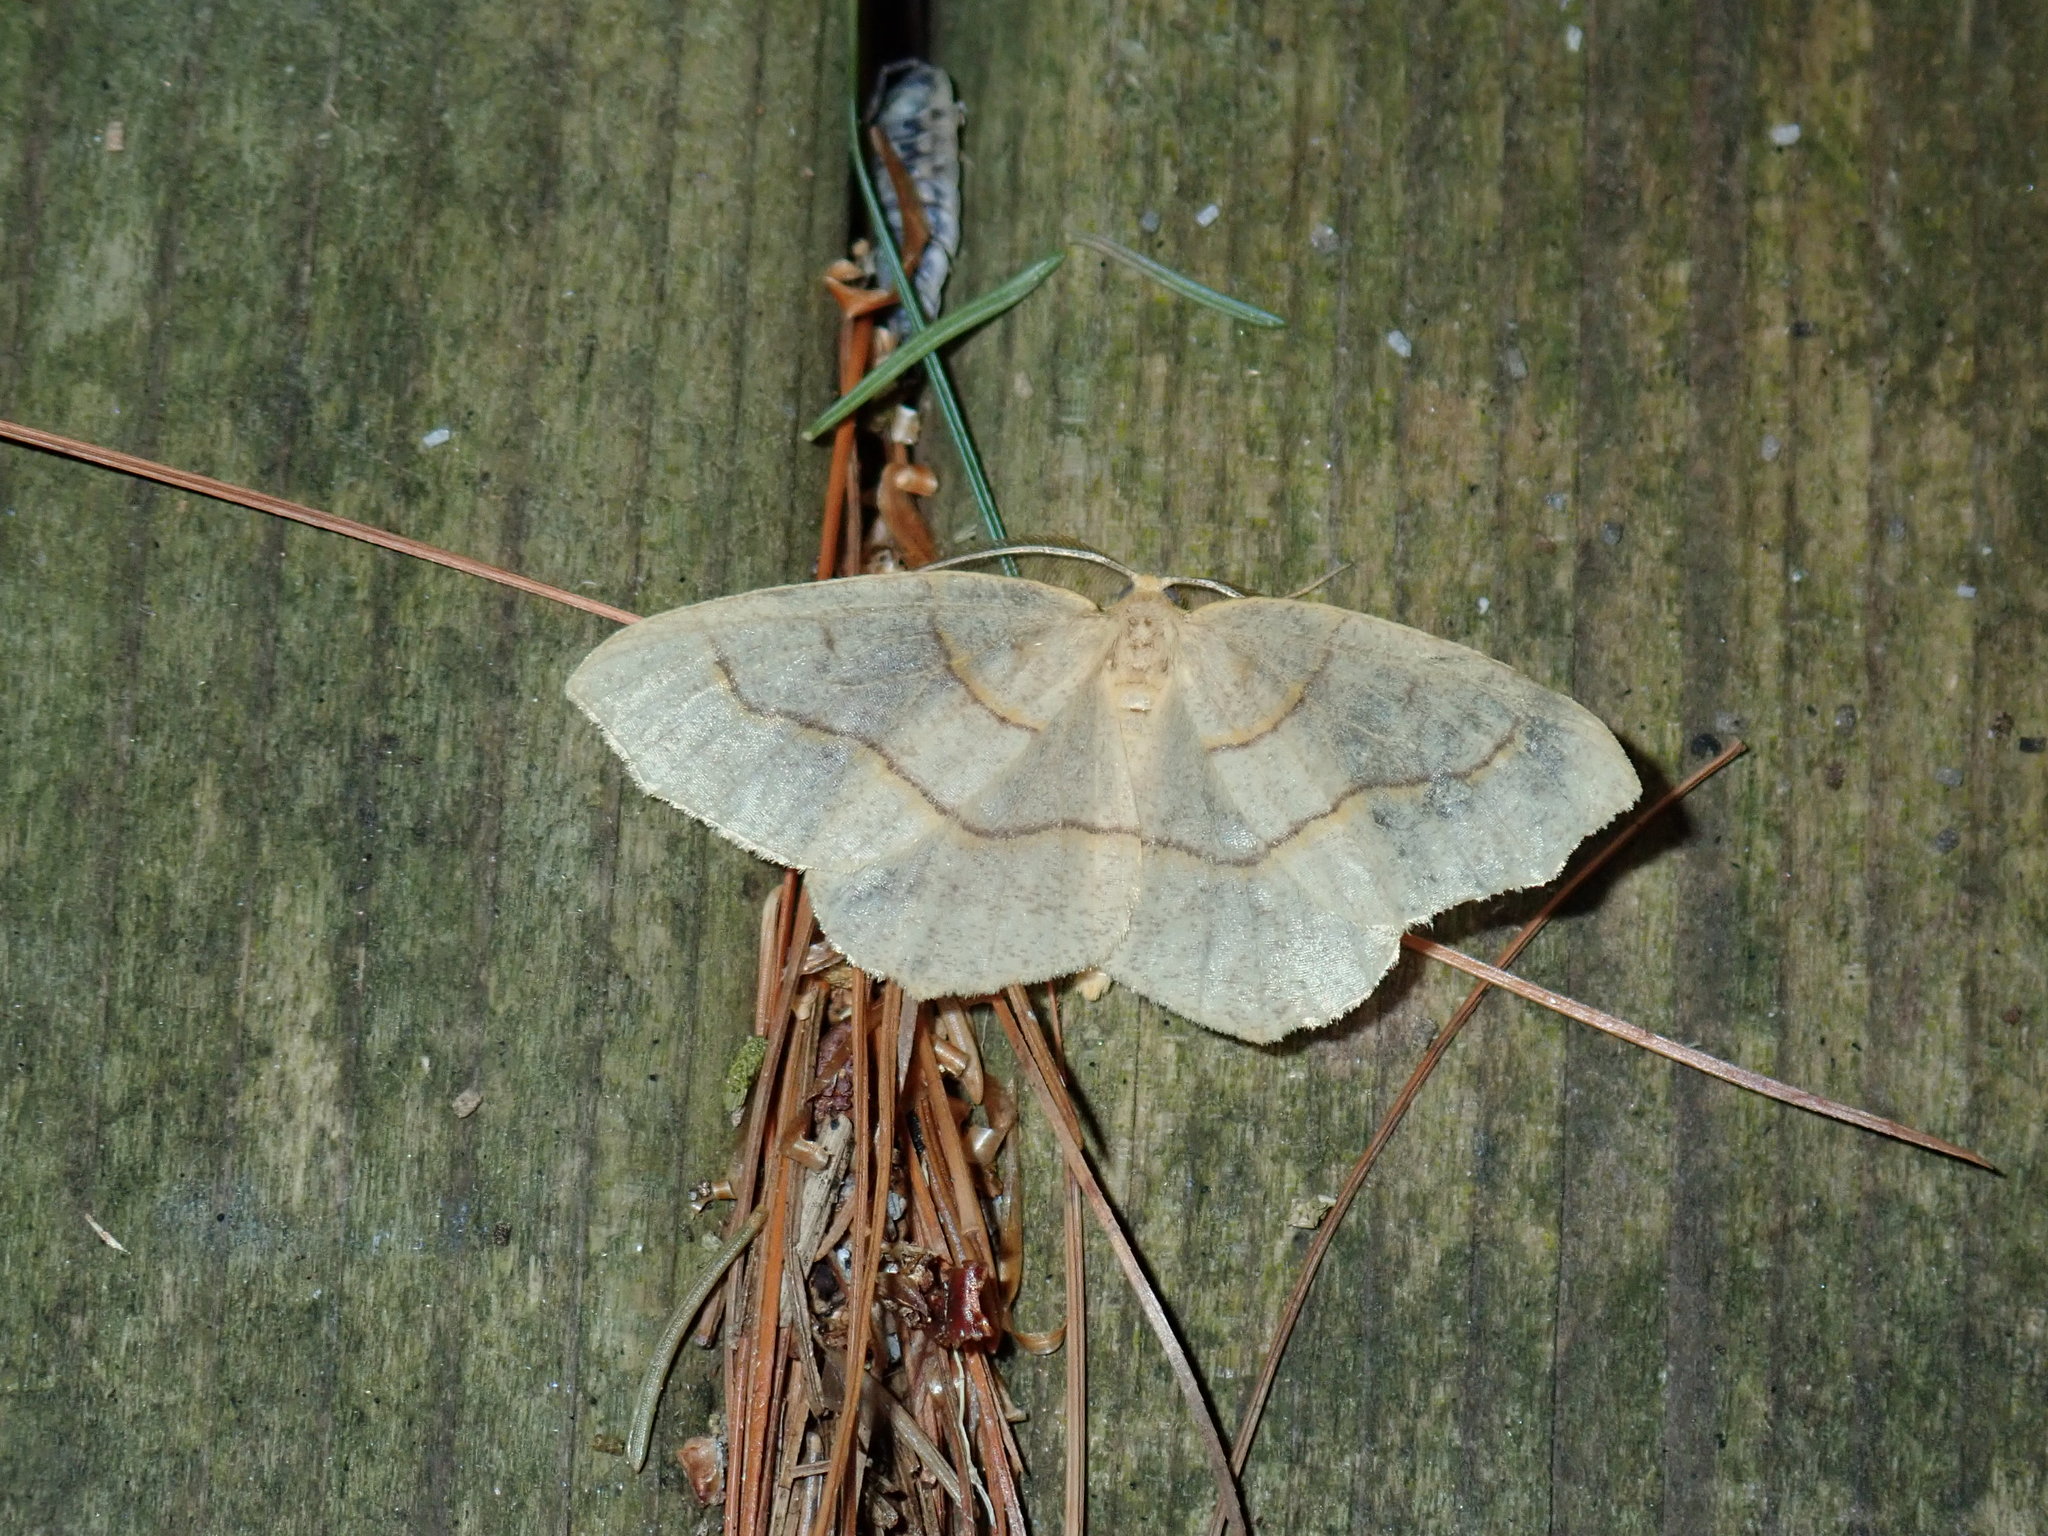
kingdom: Animalia
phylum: Arthropoda
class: Insecta
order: Lepidoptera
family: Geometridae
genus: Lambdina
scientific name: Lambdina fiscellaria
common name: Hemlock looper
